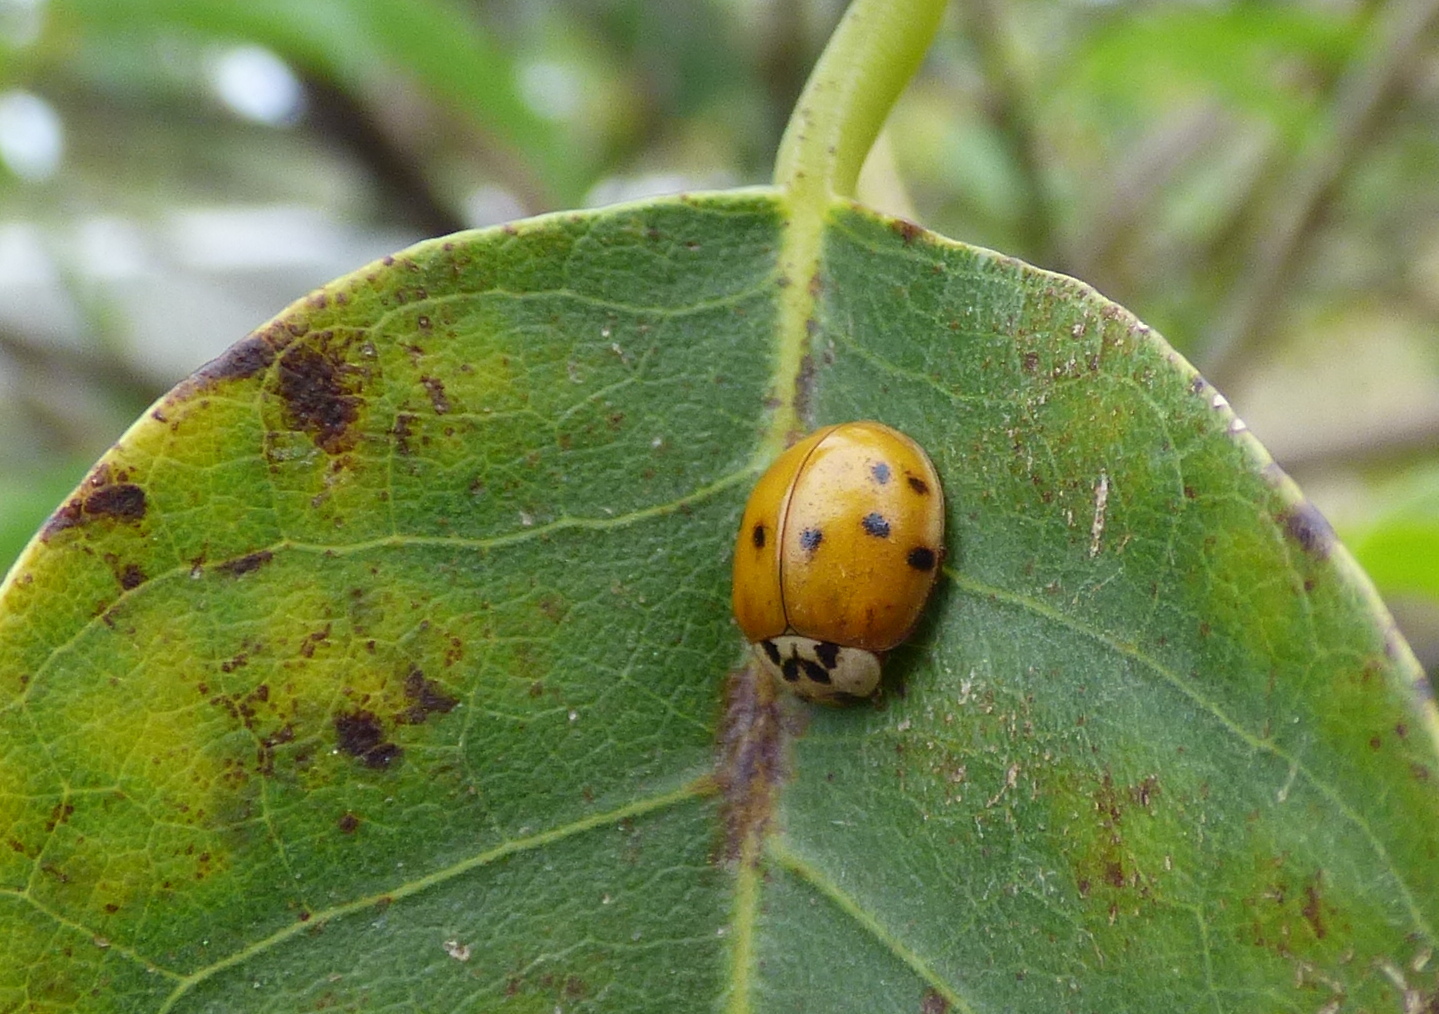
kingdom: Animalia
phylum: Arthropoda
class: Insecta
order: Coleoptera
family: Coccinellidae
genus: Harmonia
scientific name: Harmonia axyridis
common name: Harlequin ladybird
